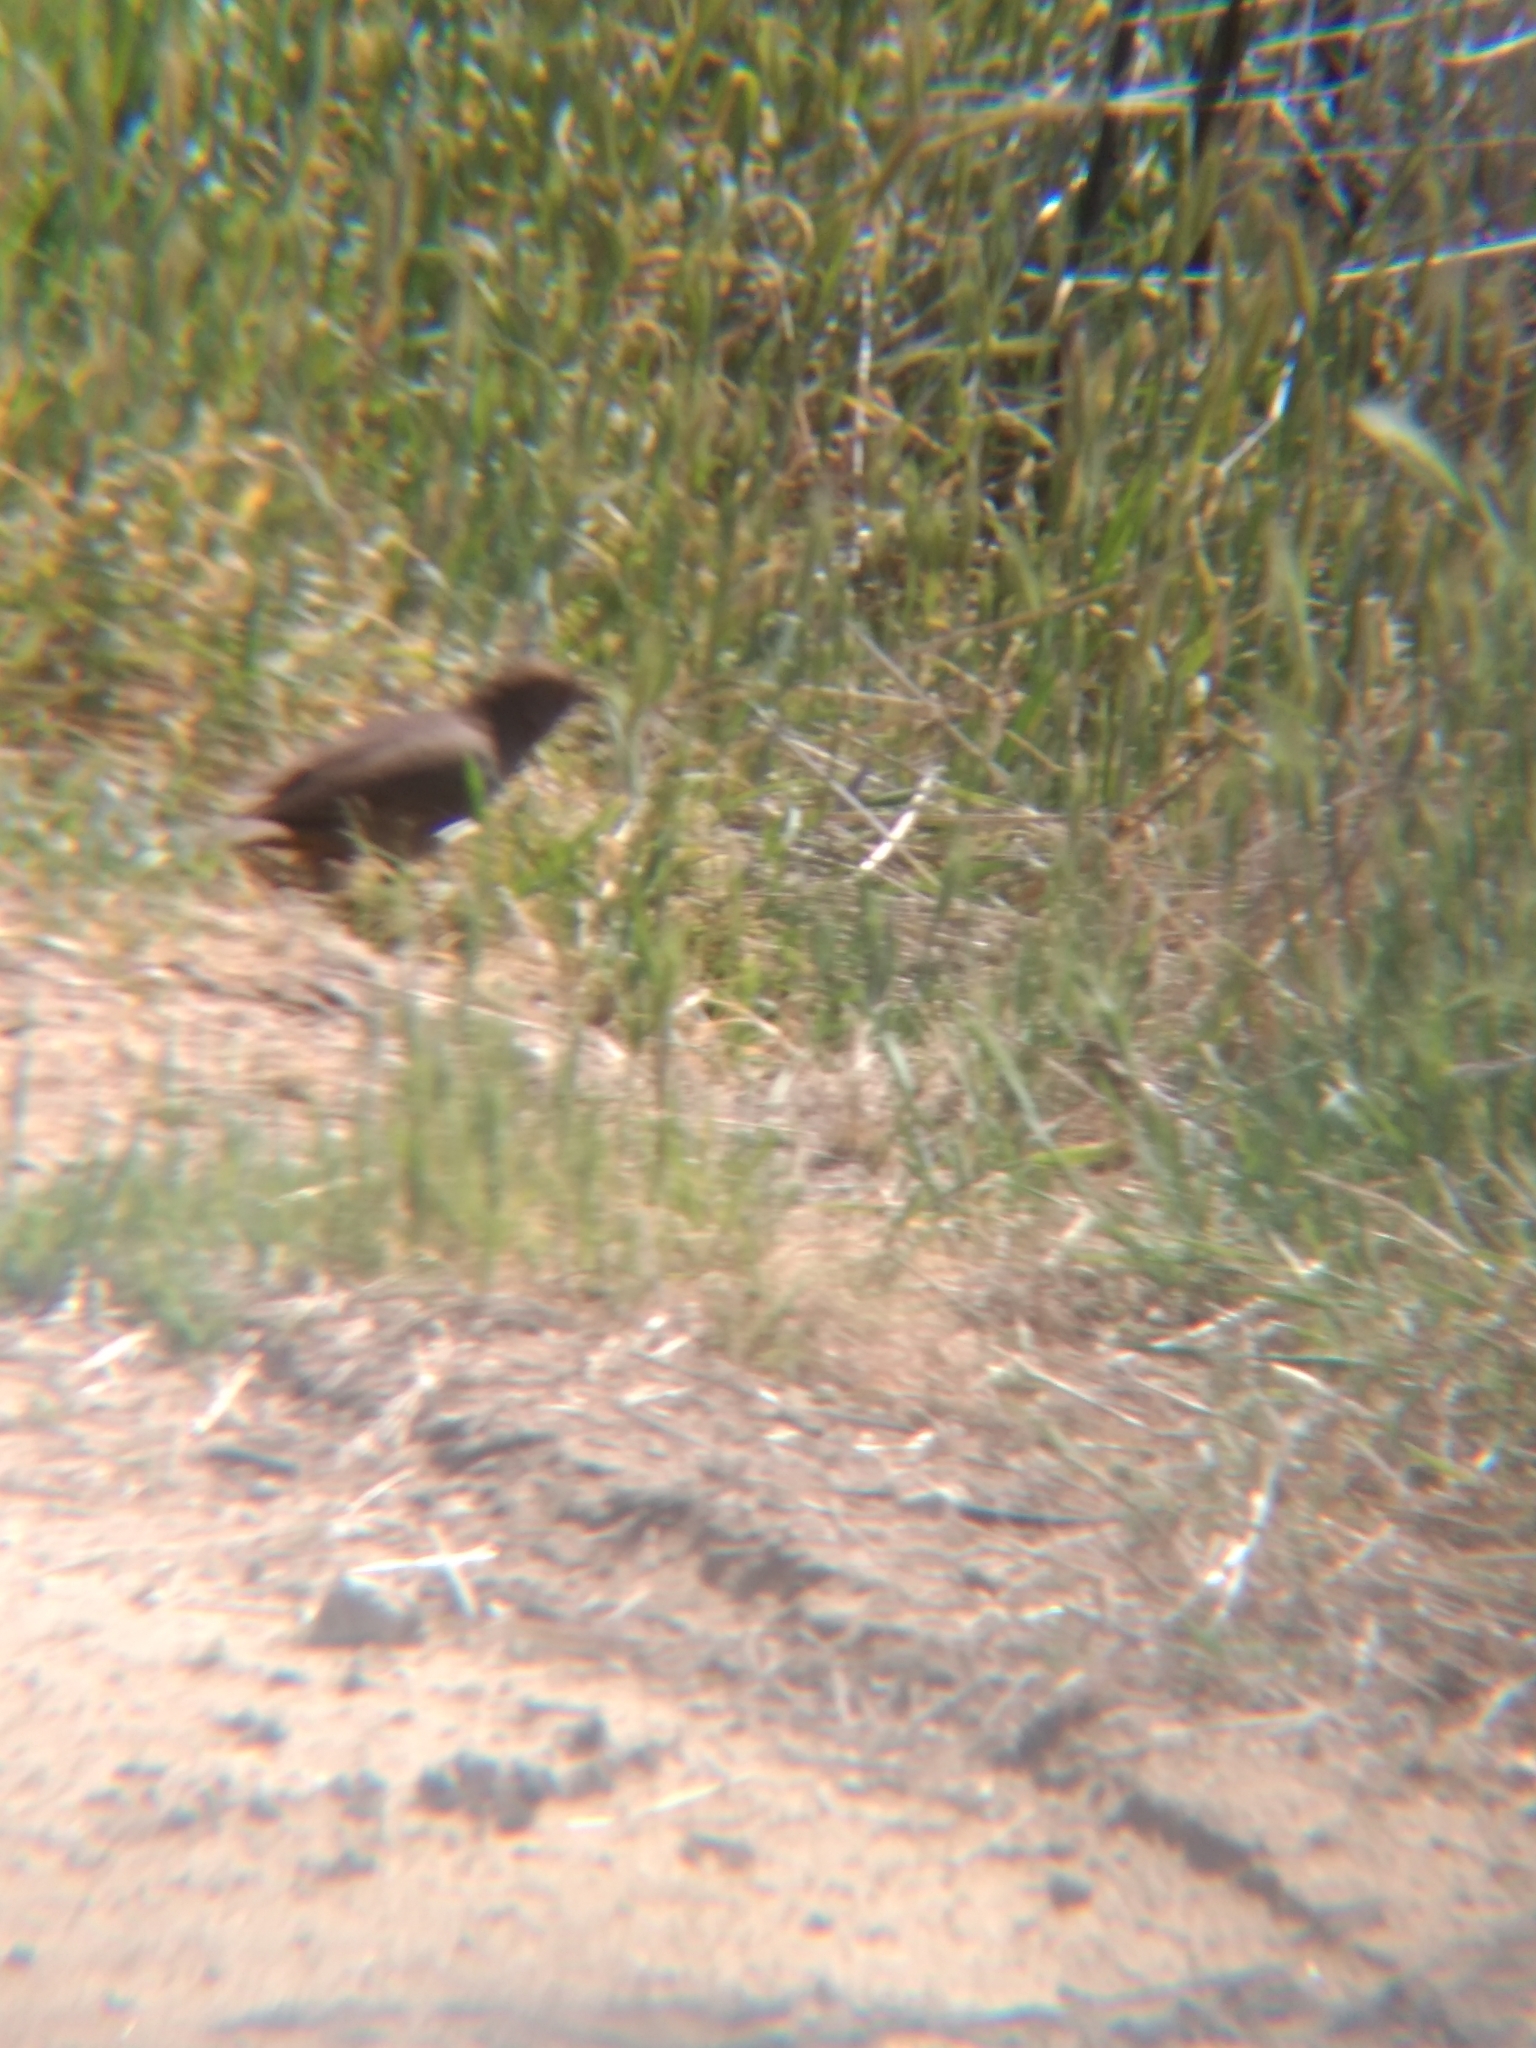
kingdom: Animalia
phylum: Chordata
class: Aves
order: Passeriformes
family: Passerellidae
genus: Melozone
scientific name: Melozone crissalis
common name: California towhee
